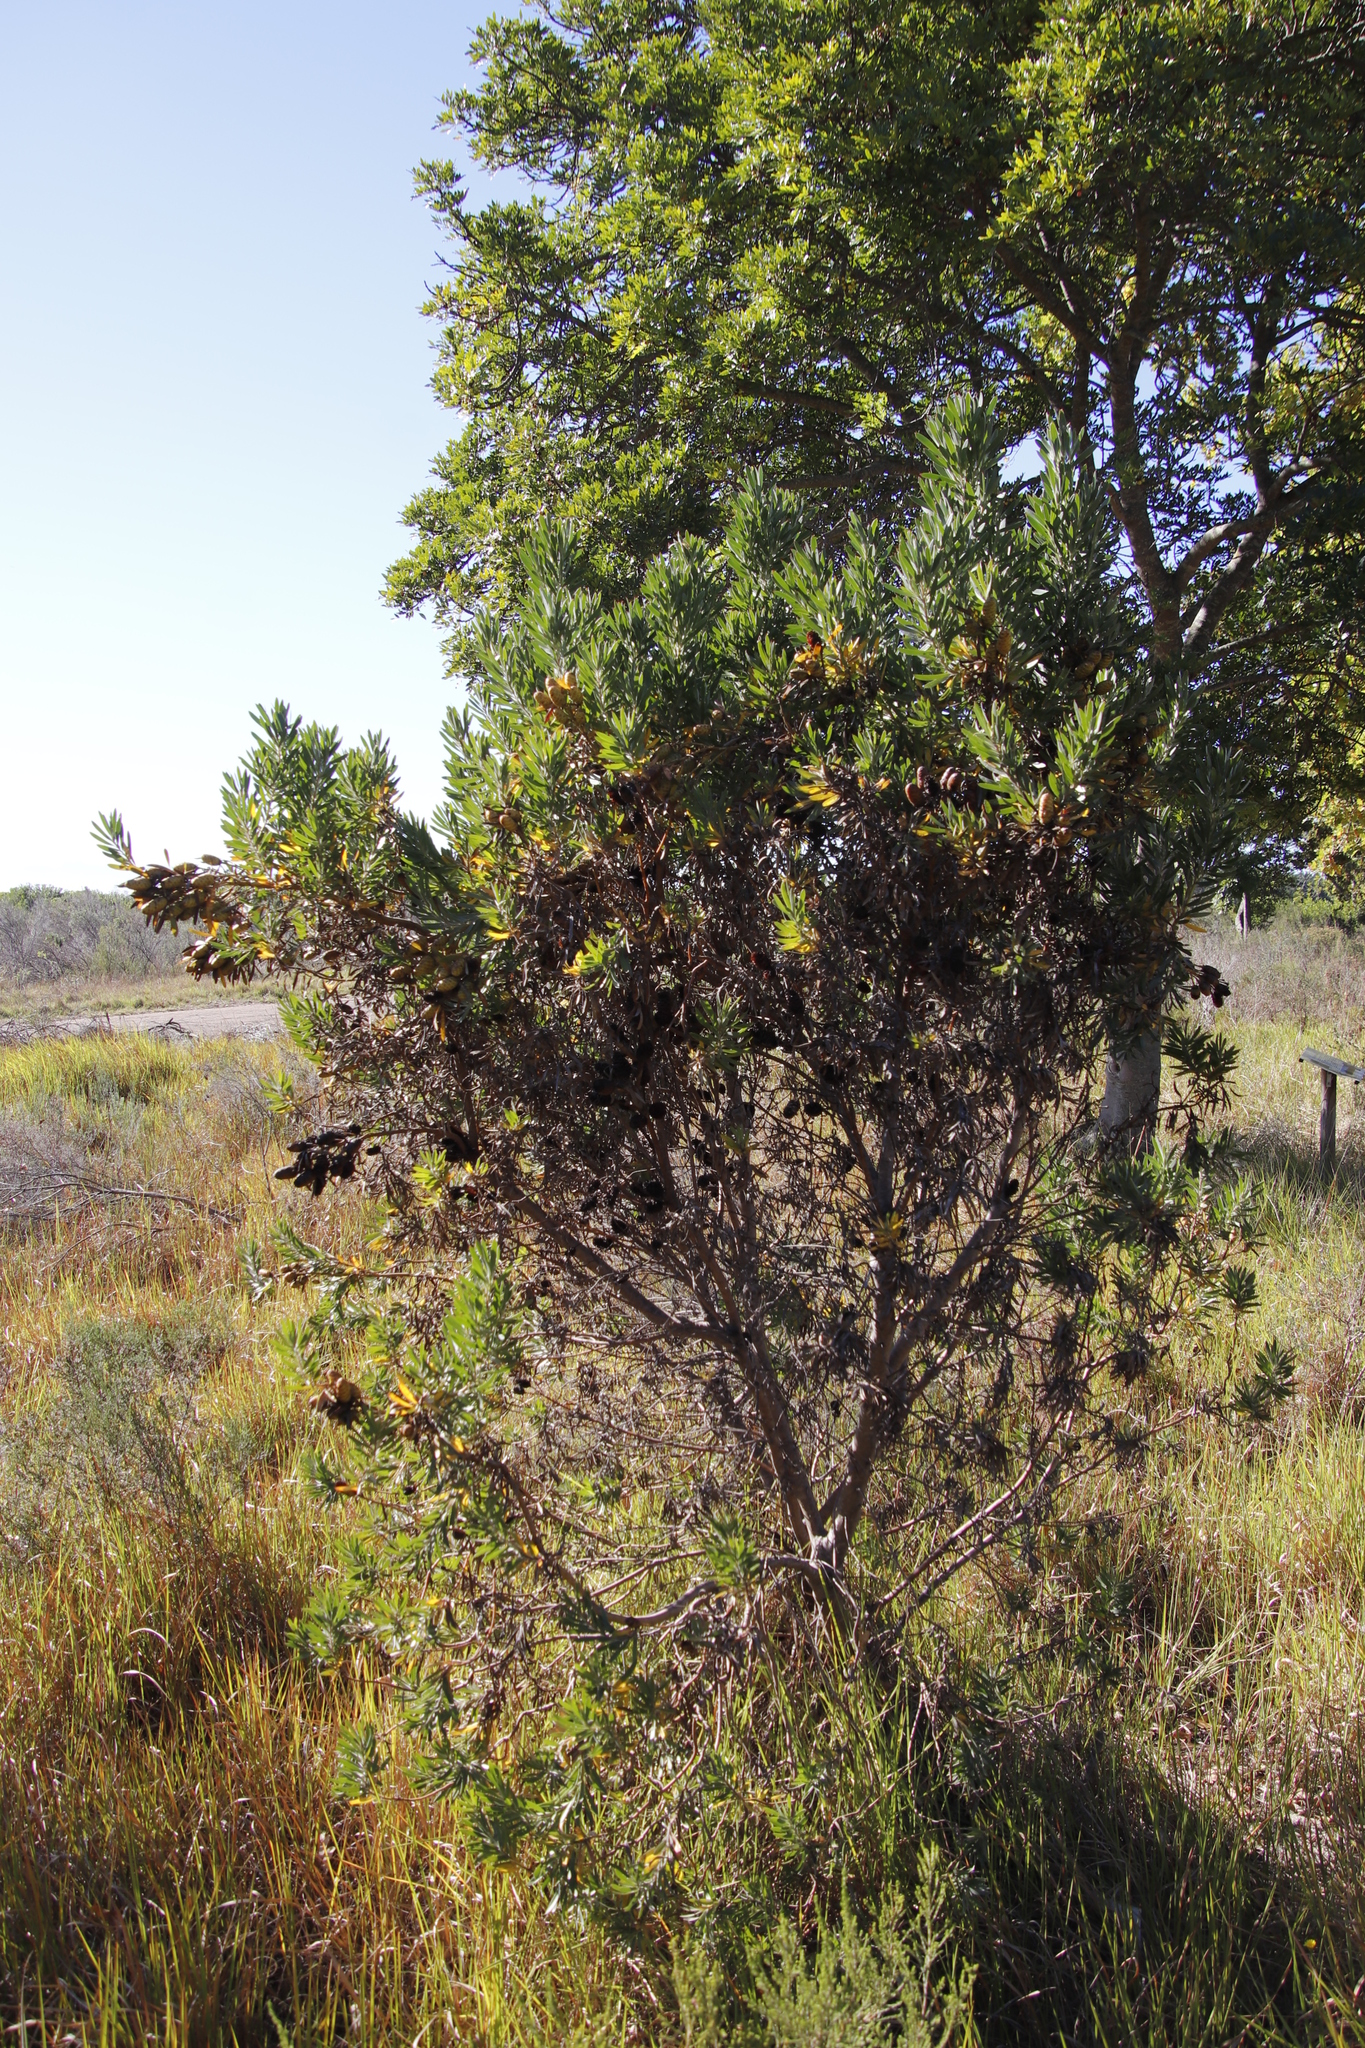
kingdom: Plantae
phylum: Tracheophyta
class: Magnoliopsida
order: Proteales
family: Proteaceae
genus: Leucadendron
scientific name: Leucadendron macowanii
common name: Acacia-leaf conebush
